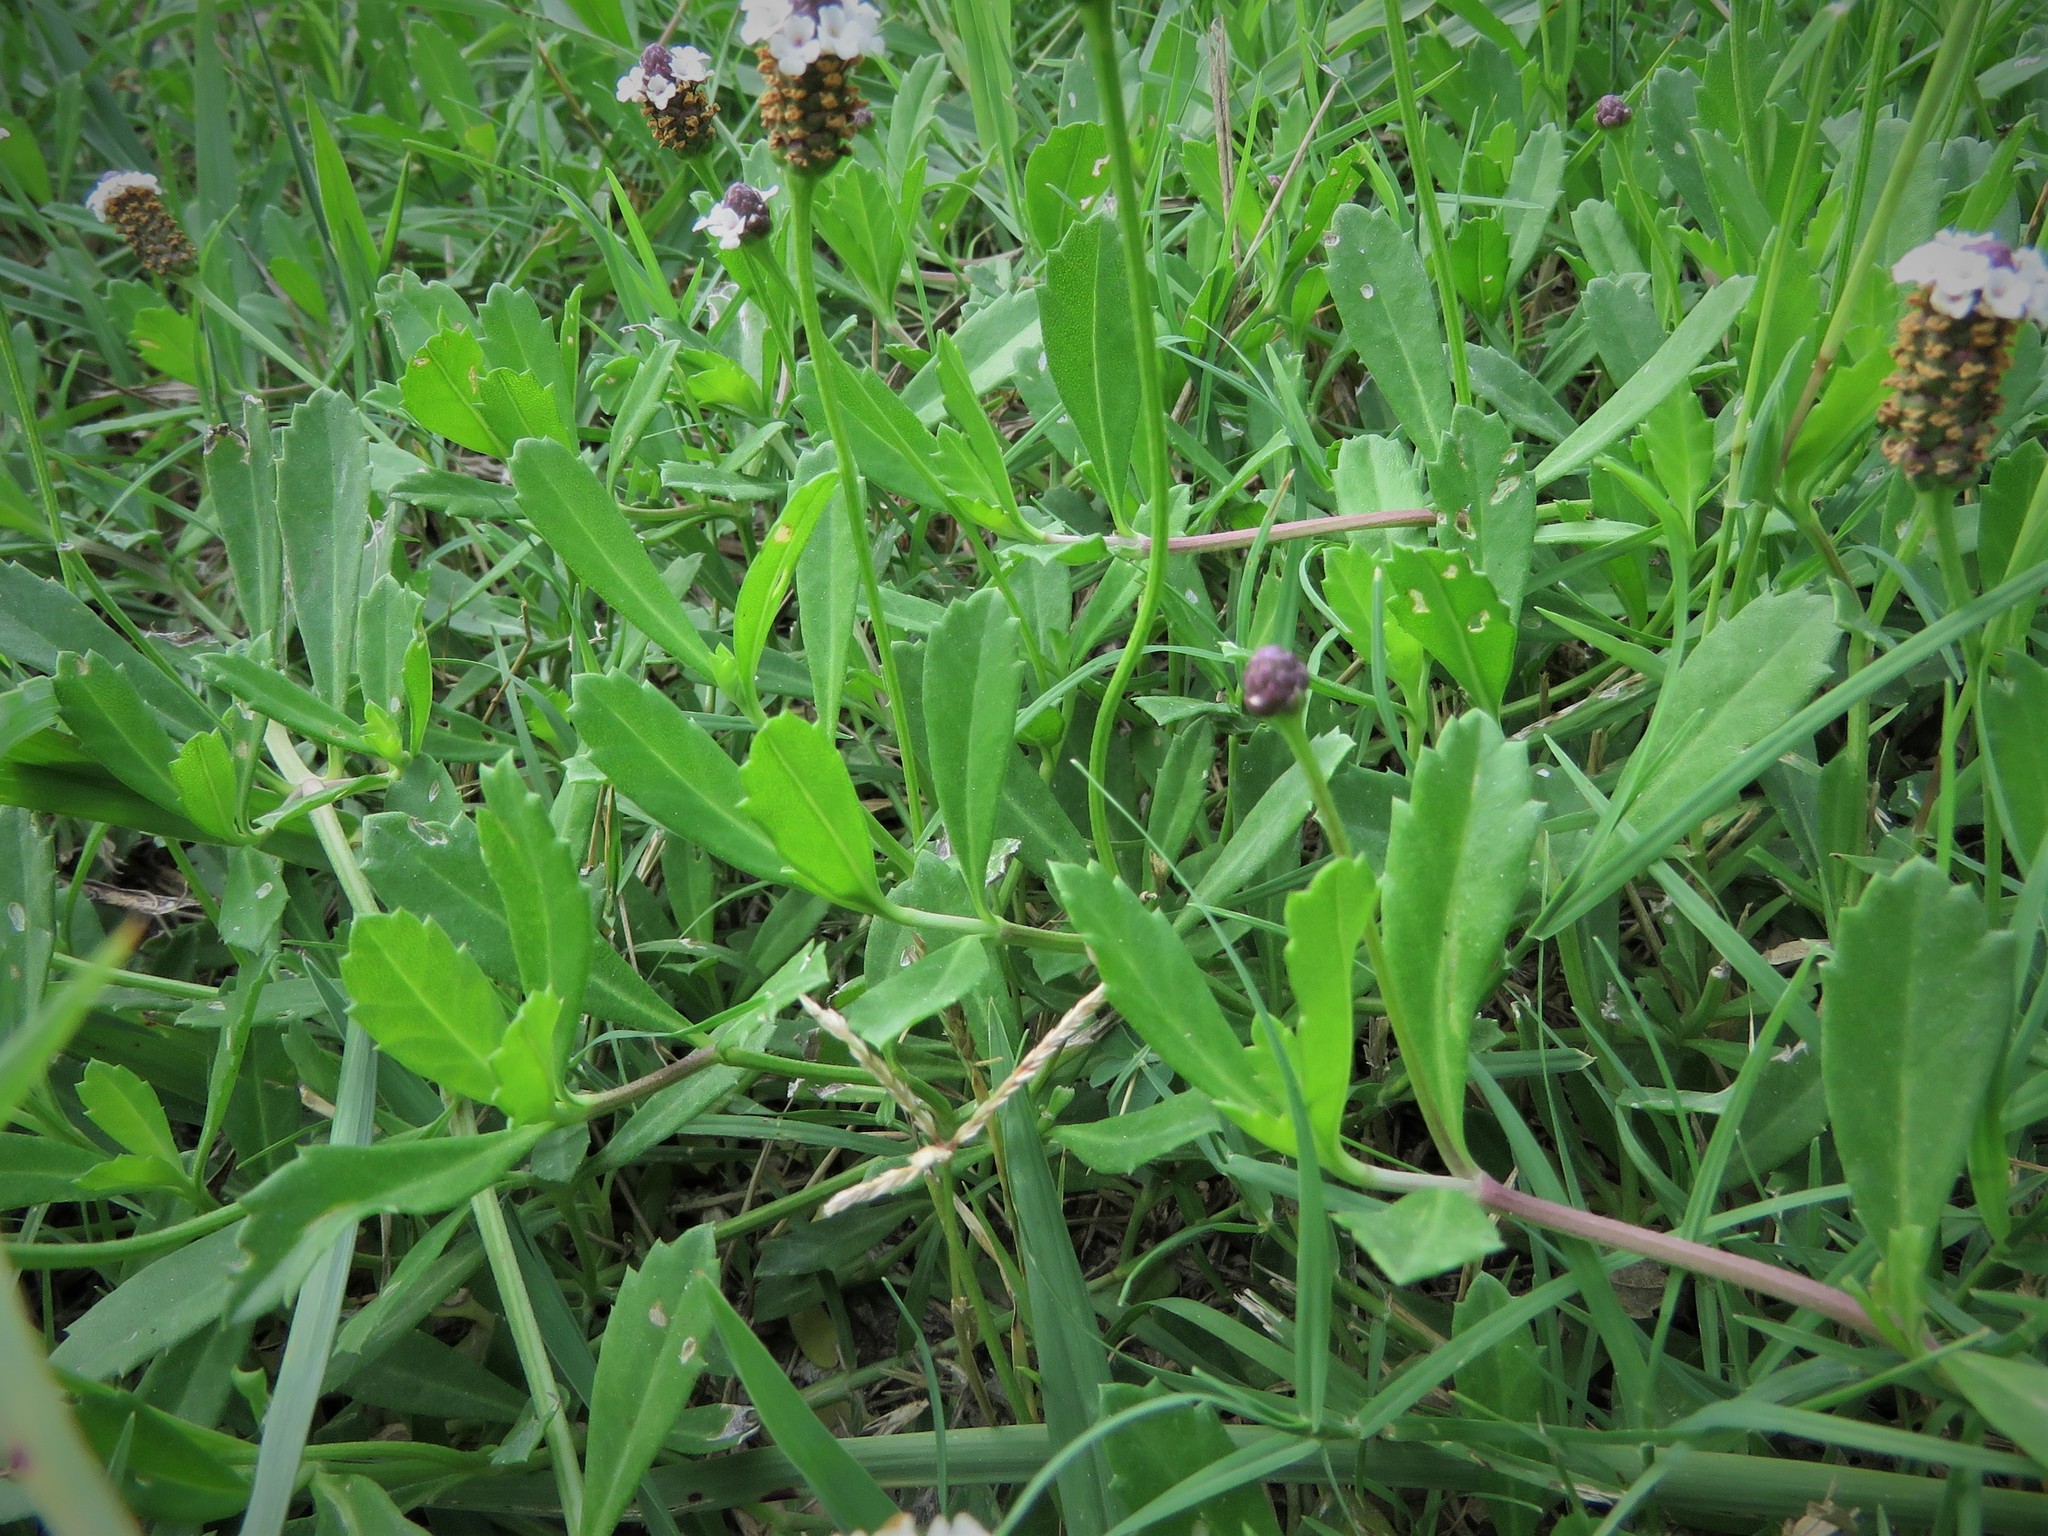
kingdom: Plantae
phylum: Tracheophyta
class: Magnoliopsida
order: Lamiales
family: Verbenaceae
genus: Phyla
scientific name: Phyla nodiflora
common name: Frogfruit
